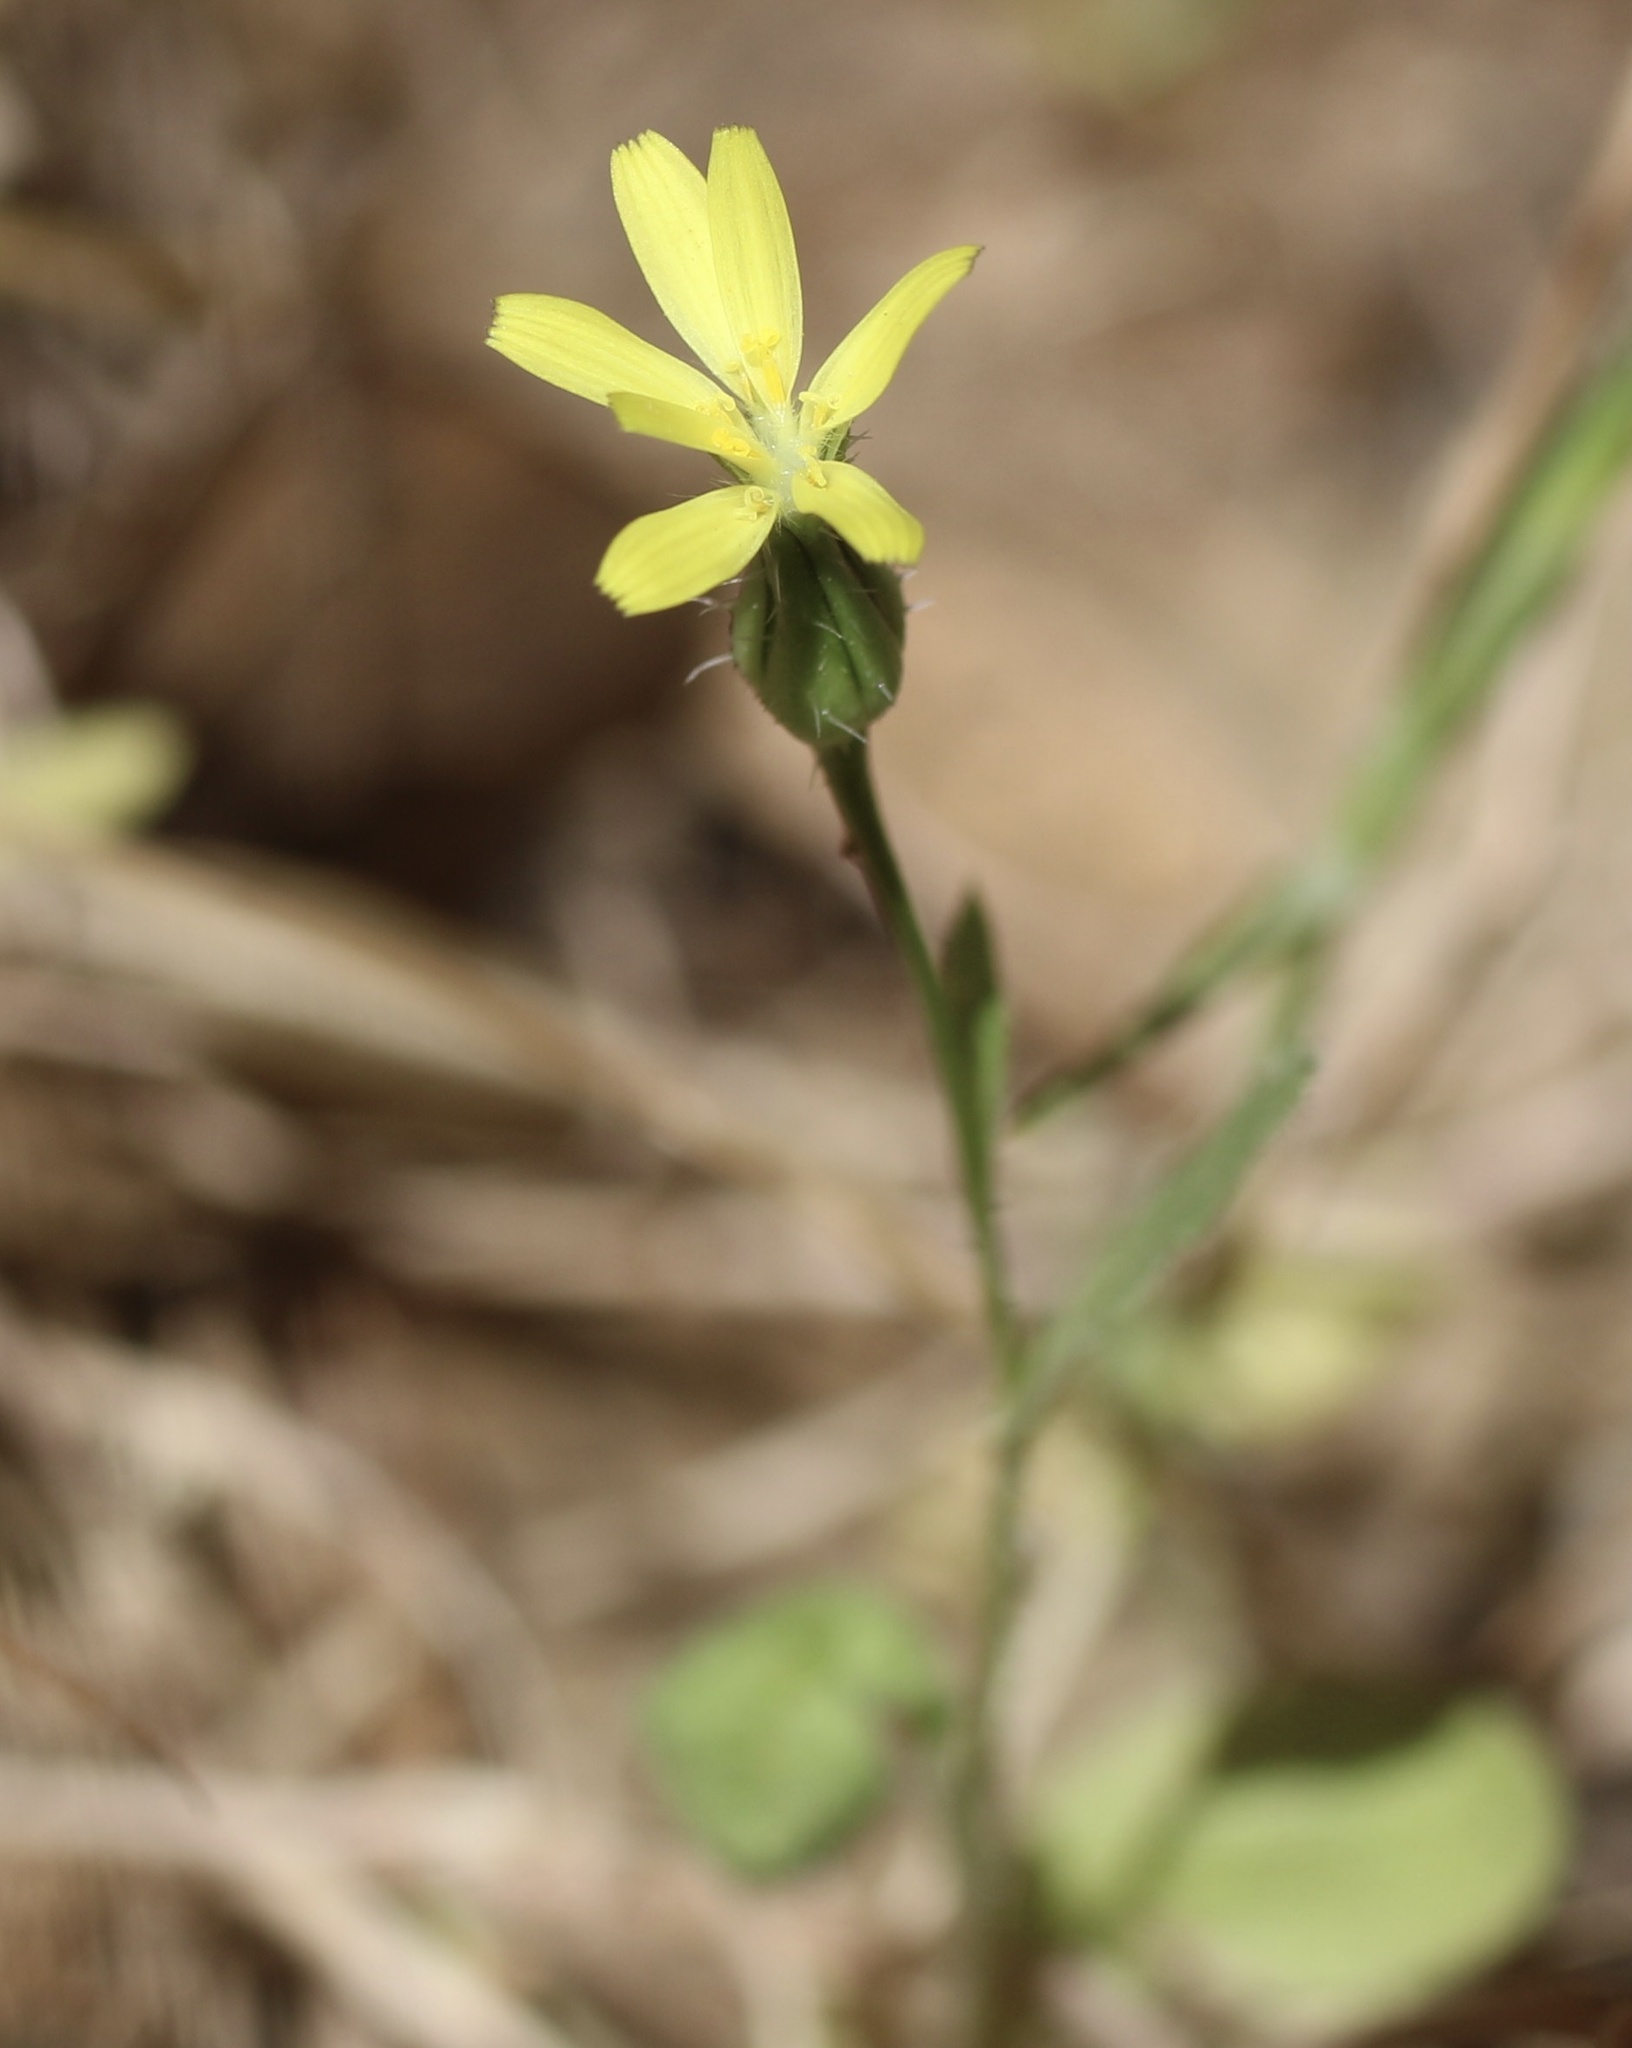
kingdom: Plantae
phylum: Tracheophyta
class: Magnoliopsida
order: Asterales
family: Asteraceae
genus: Urospermum
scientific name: Urospermum picroides
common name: False hawkbit
